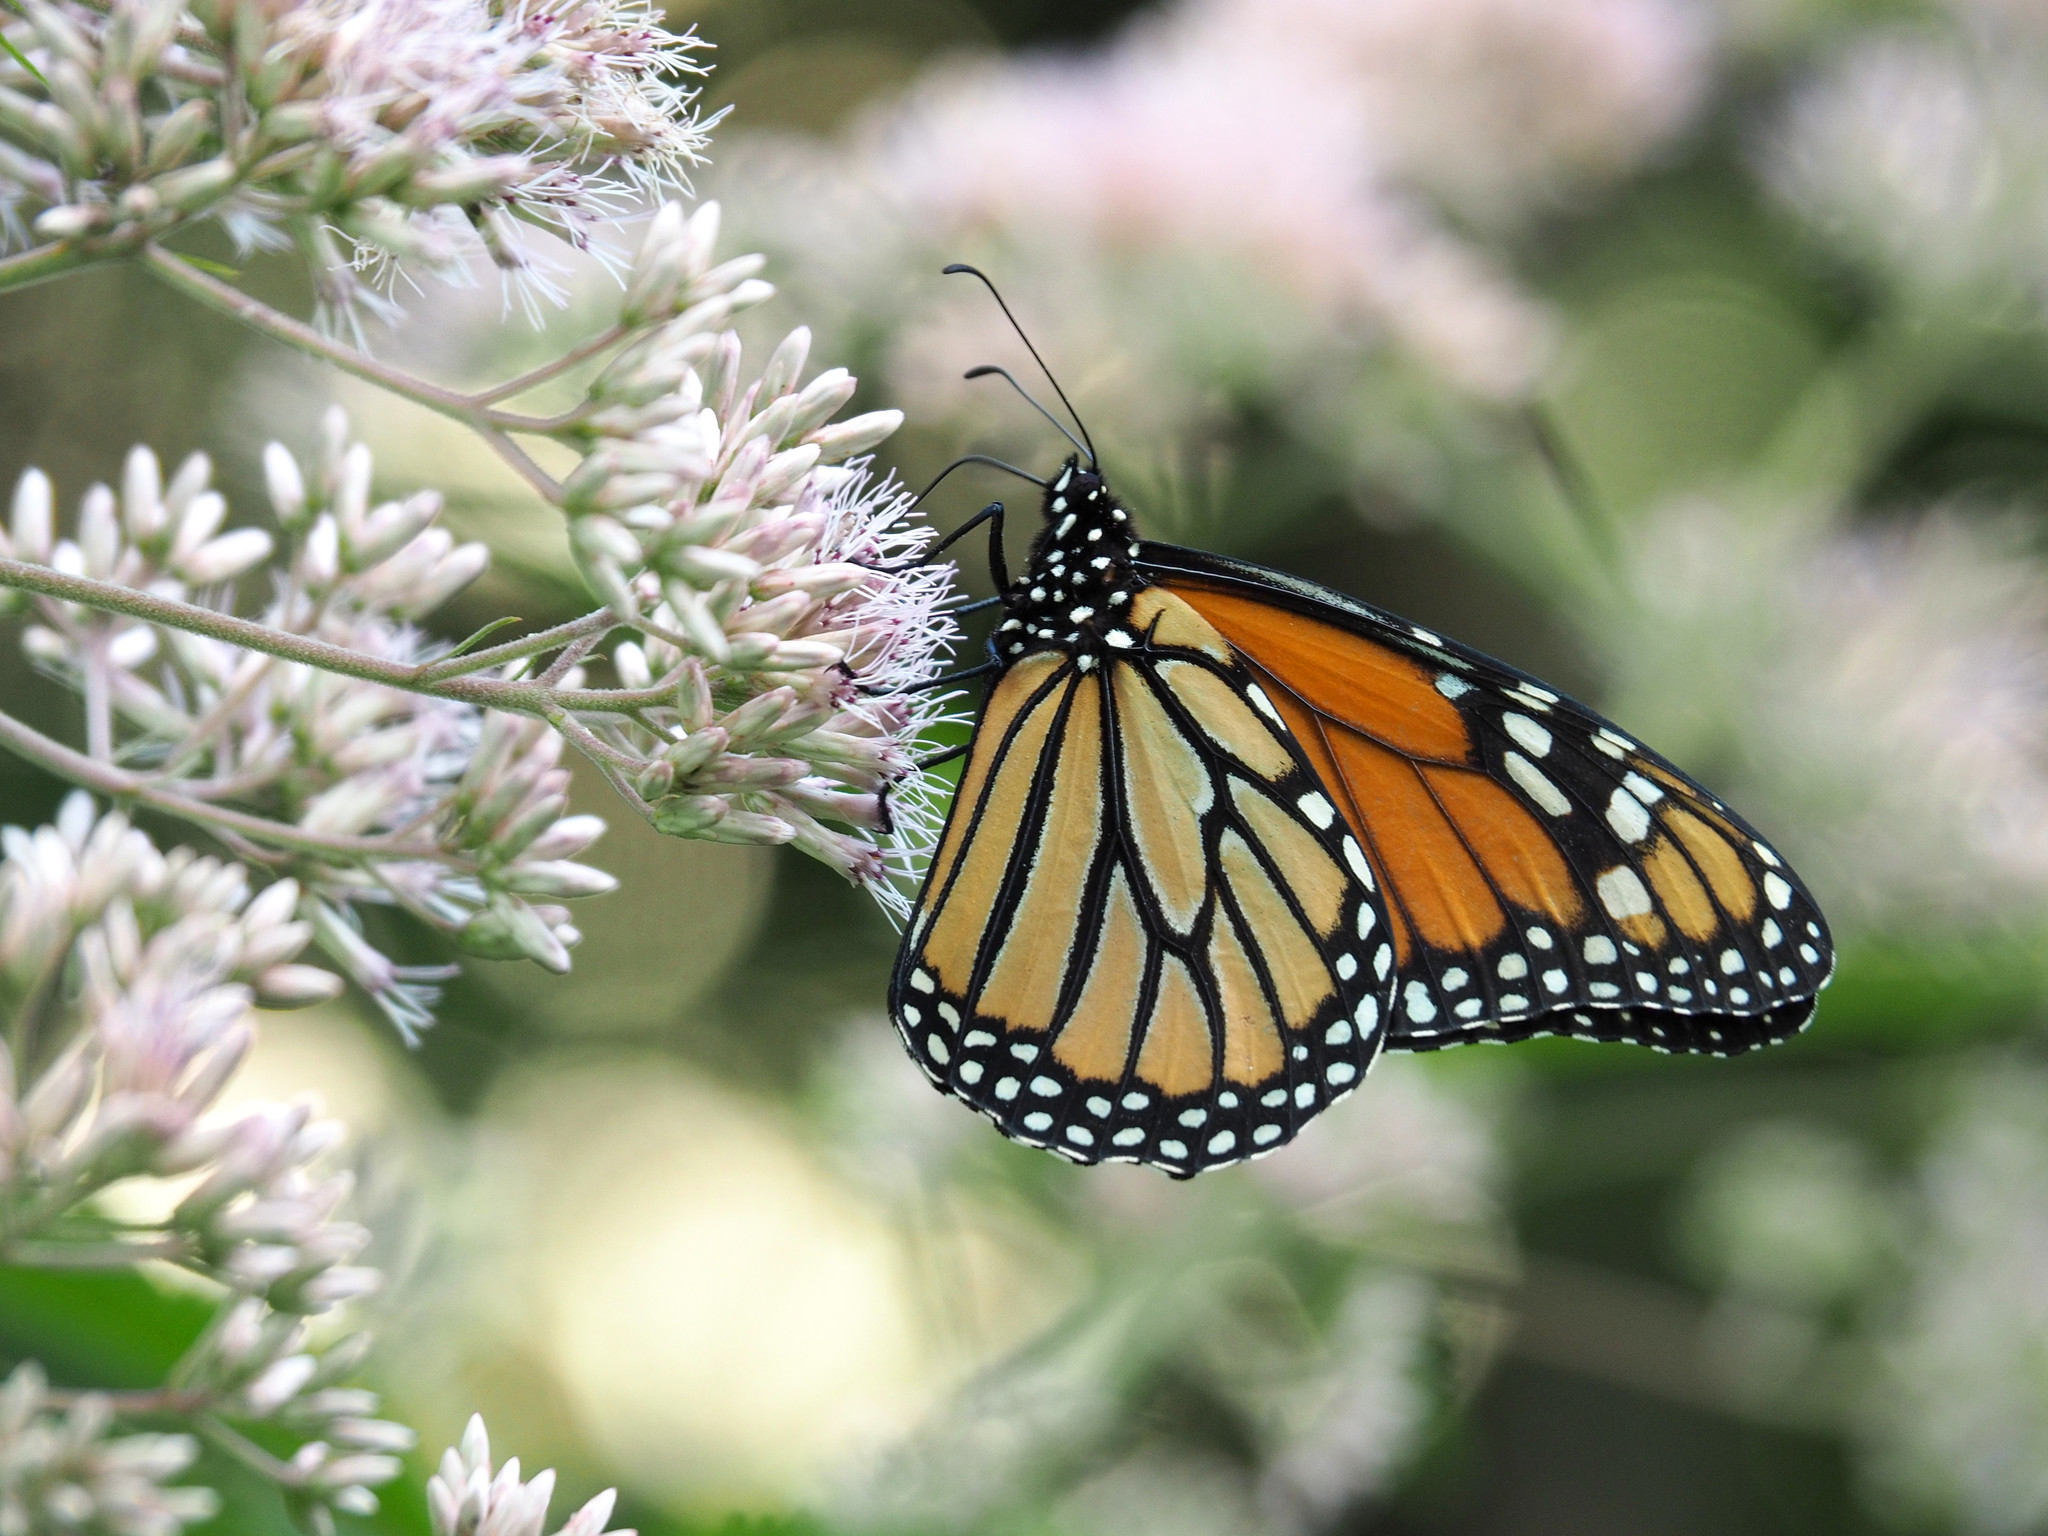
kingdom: Animalia
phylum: Arthropoda
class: Insecta
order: Lepidoptera
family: Nymphalidae
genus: Danaus
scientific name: Danaus plexippus
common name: Monarch
